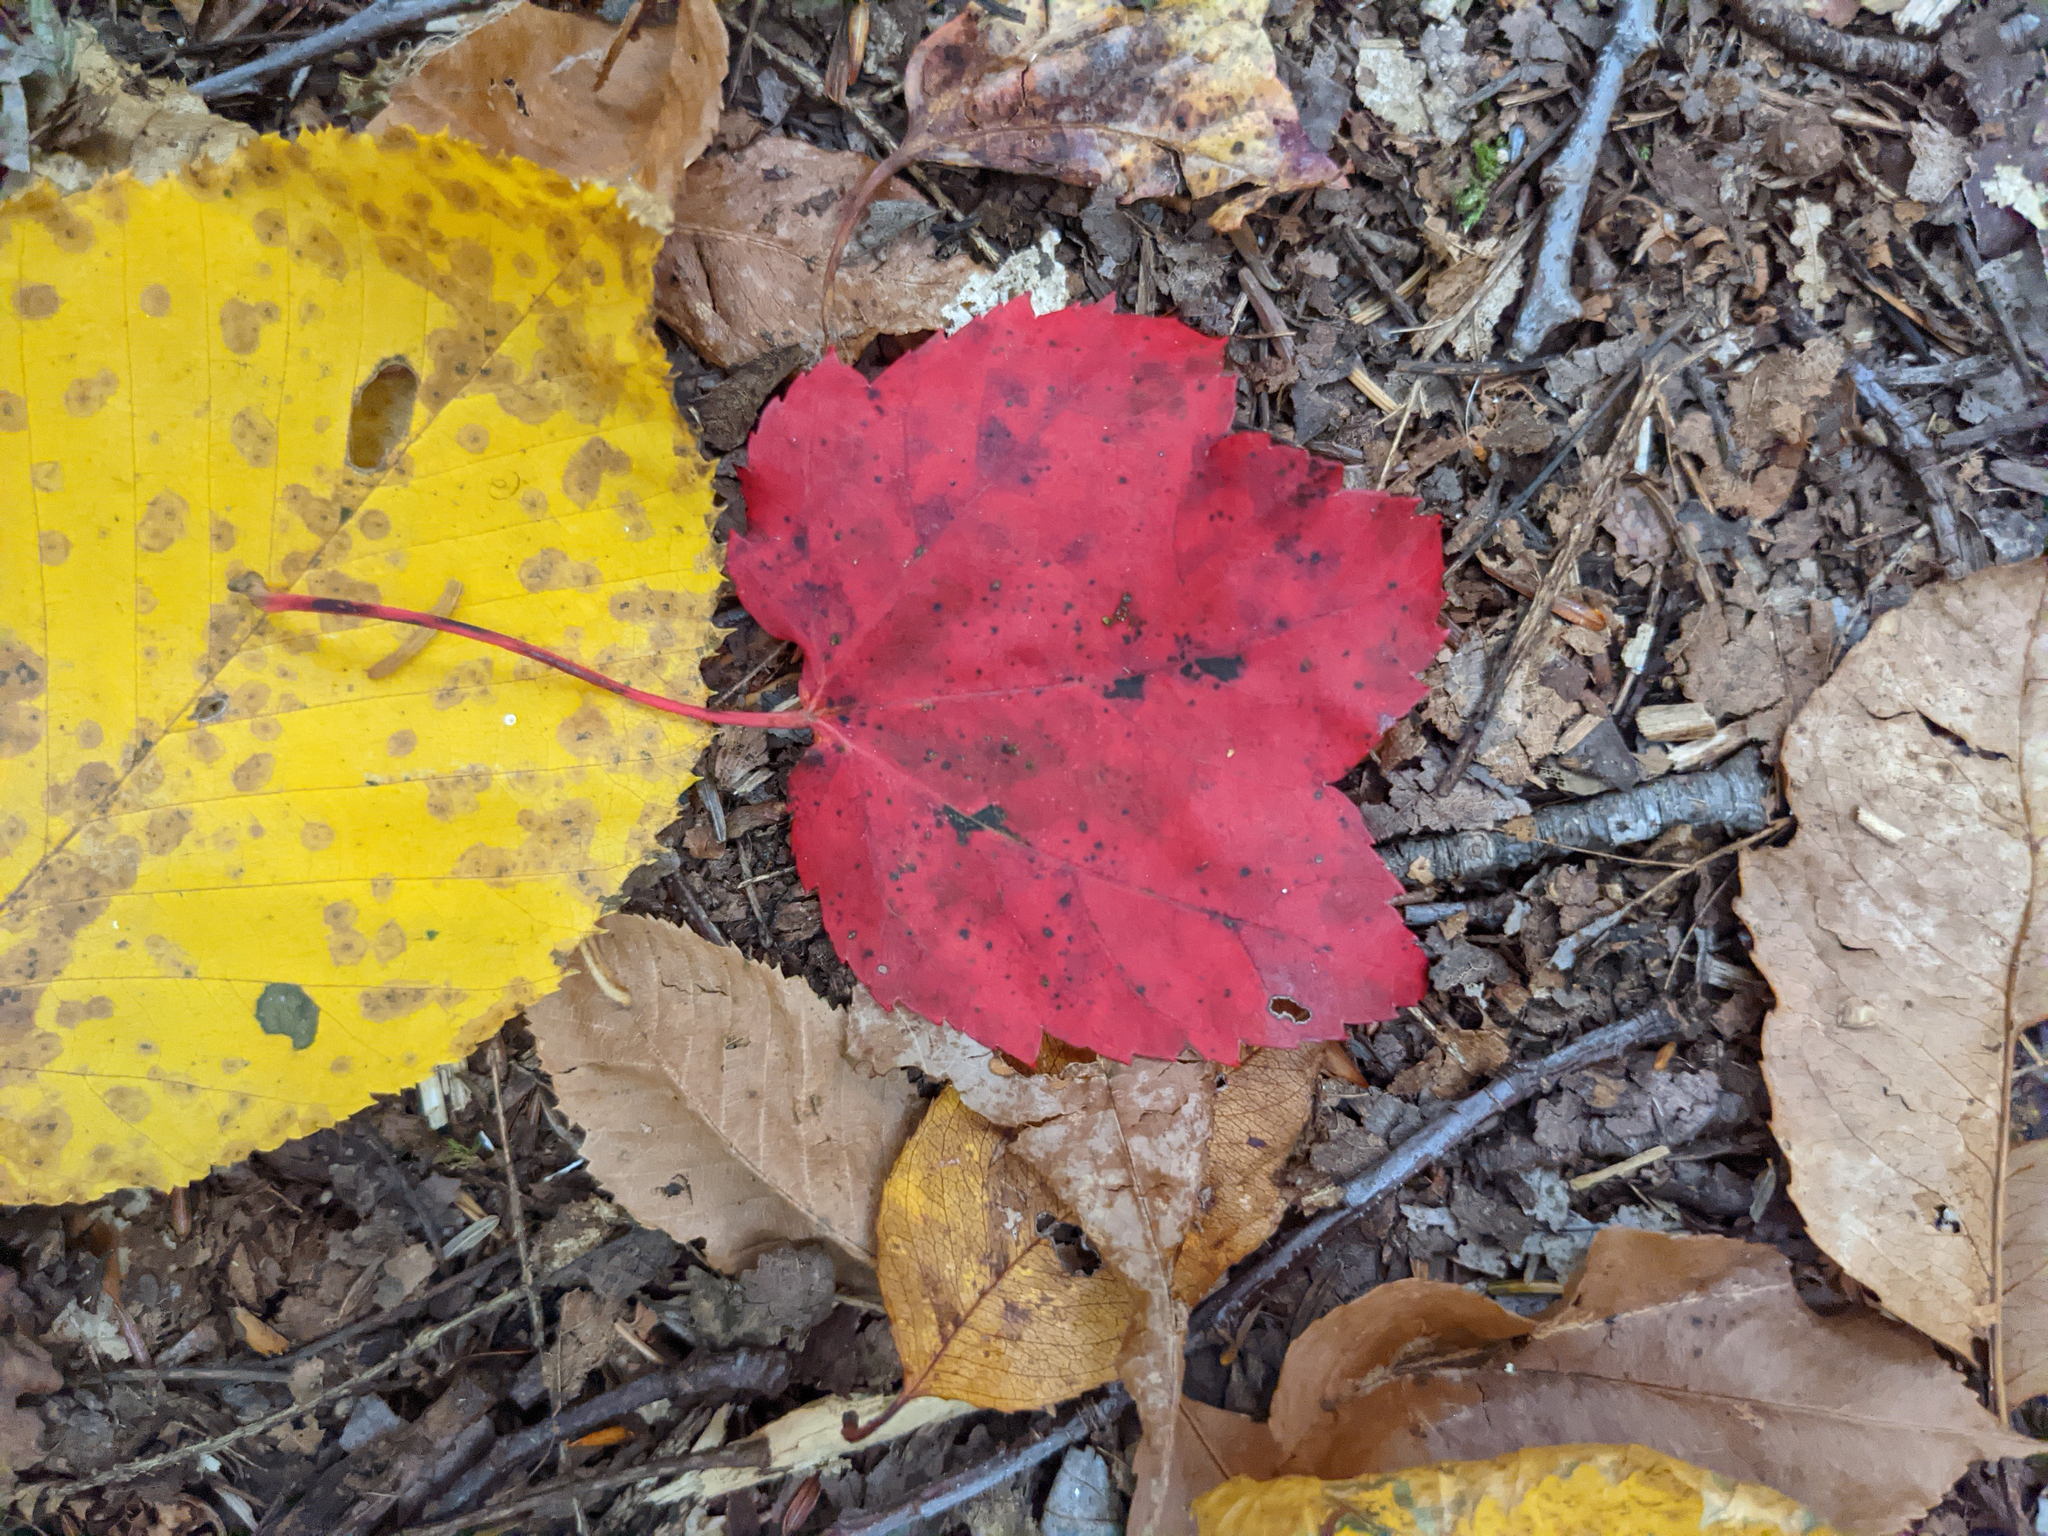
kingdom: Plantae
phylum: Tracheophyta
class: Magnoliopsida
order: Sapindales
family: Sapindaceae
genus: Acer
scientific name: Acer rubrum
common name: Red maple
